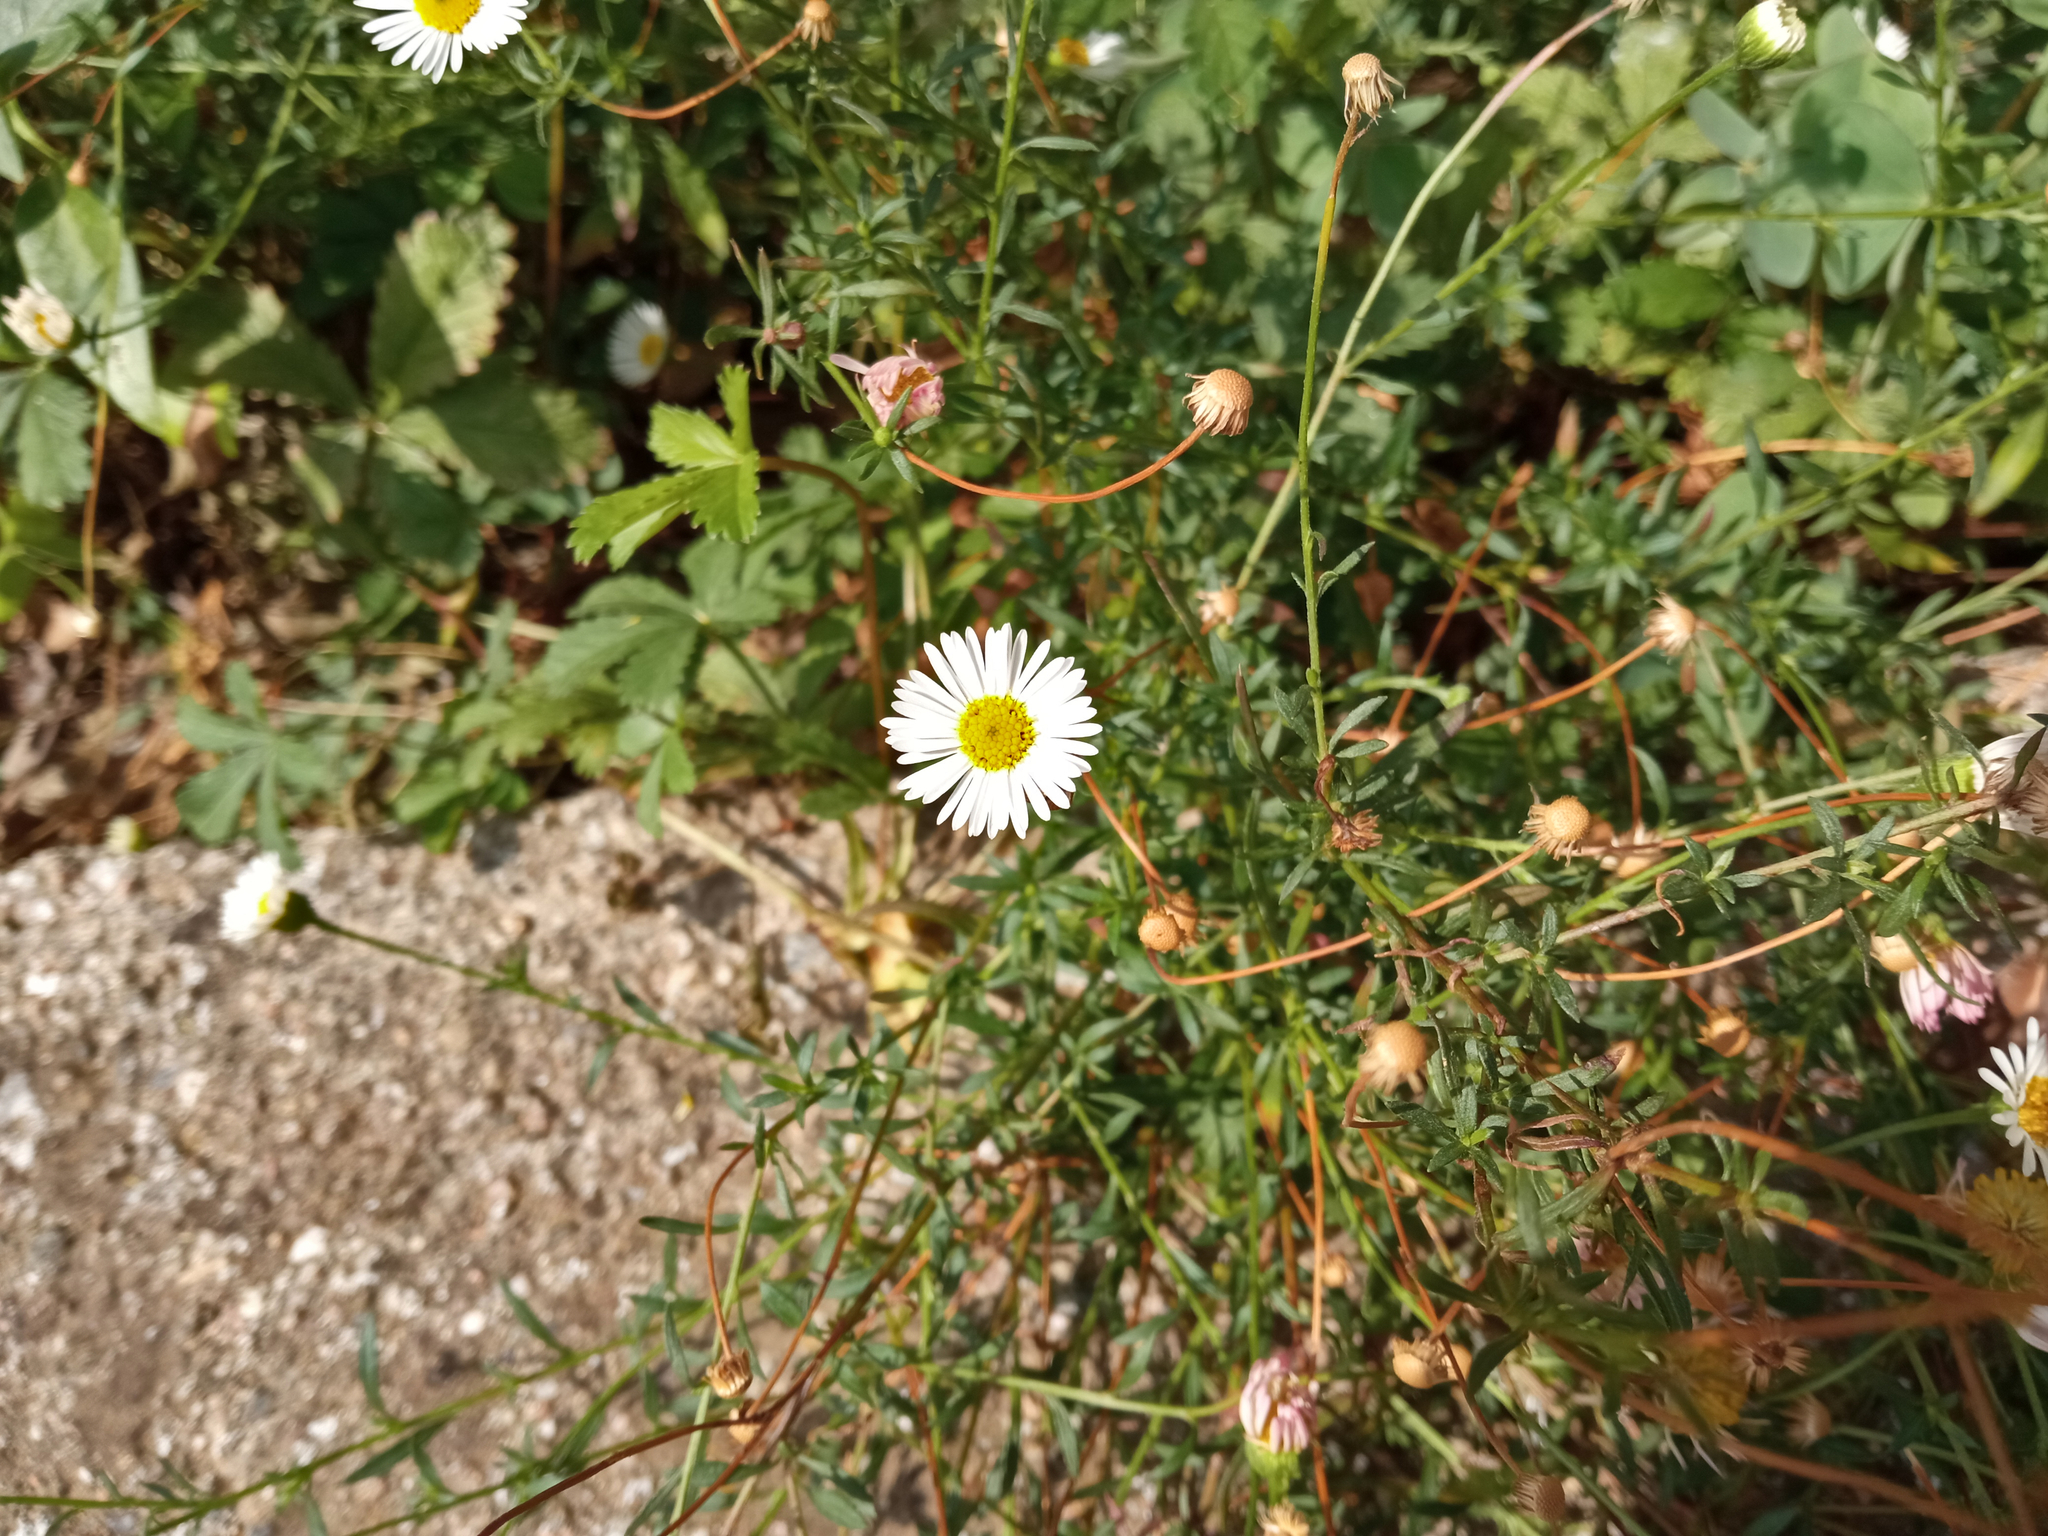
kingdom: Plantae
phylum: Tracheophyta
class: Magnoliopsida
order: Asterales
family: Asteraceae
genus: Erigeron
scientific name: Erigeron karvinskianus
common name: Mexican fleabane
